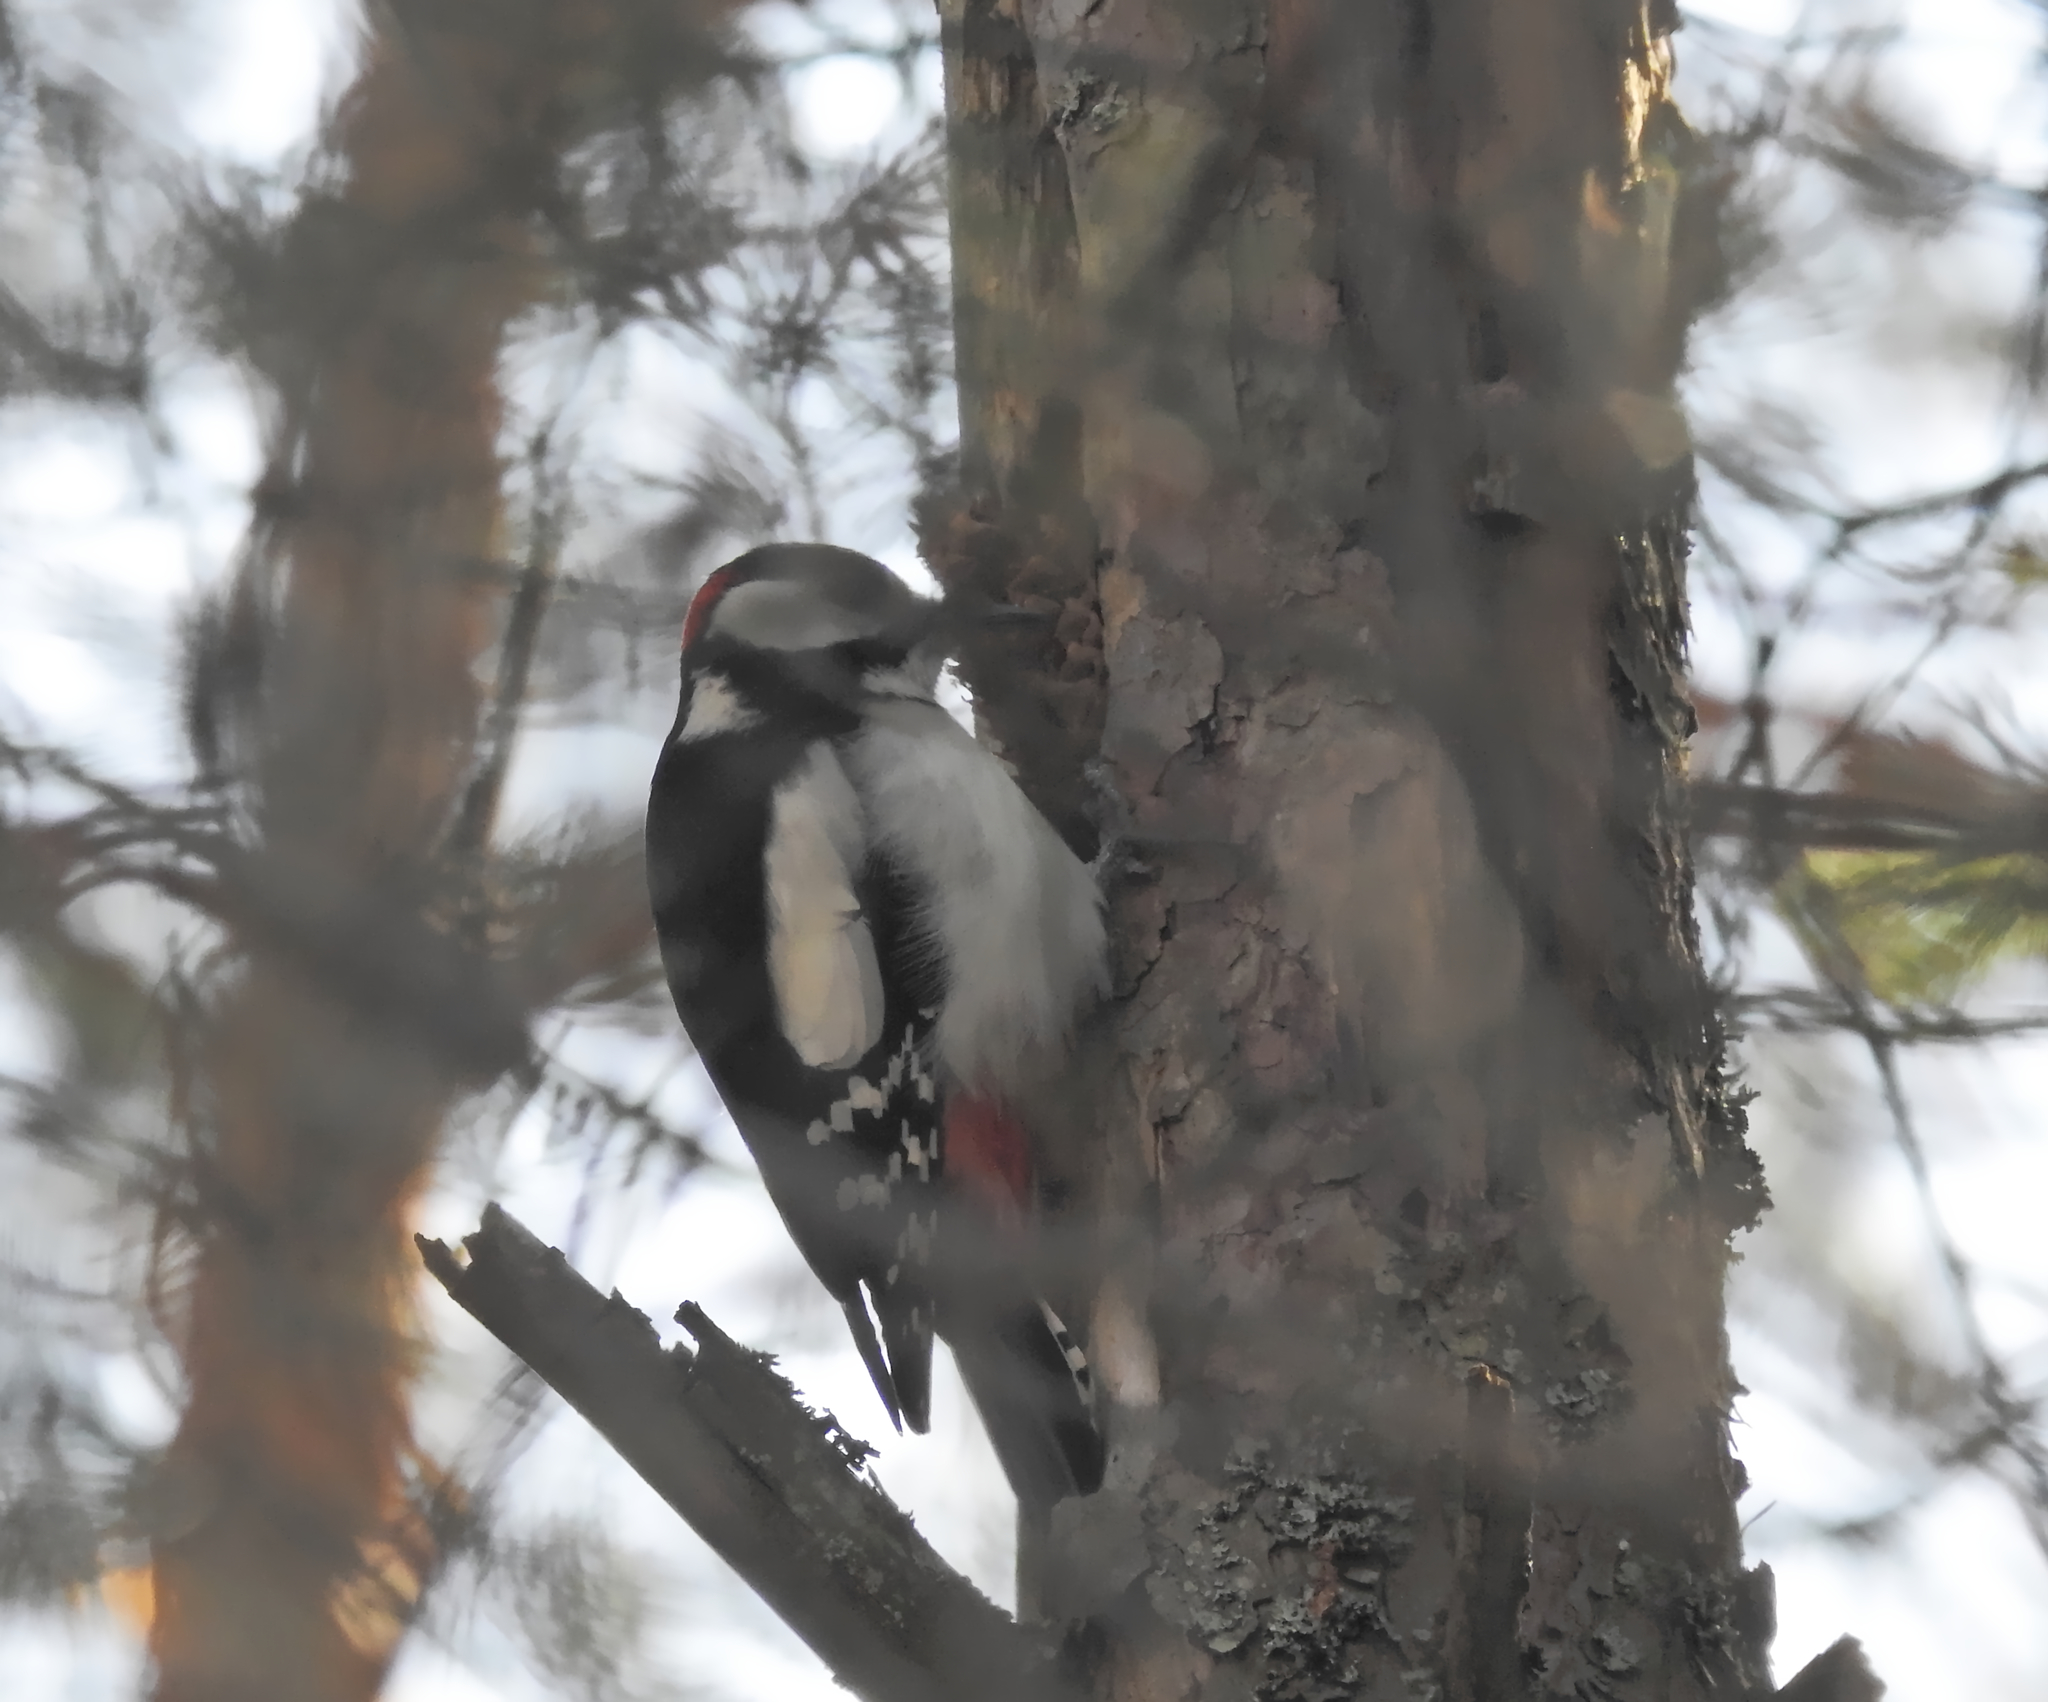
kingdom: Animalia
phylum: Chordata
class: Aves
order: Piciformes
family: Picidae
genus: Dendrocopos
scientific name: Dendrocopos major
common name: Great spotted woodpecker
